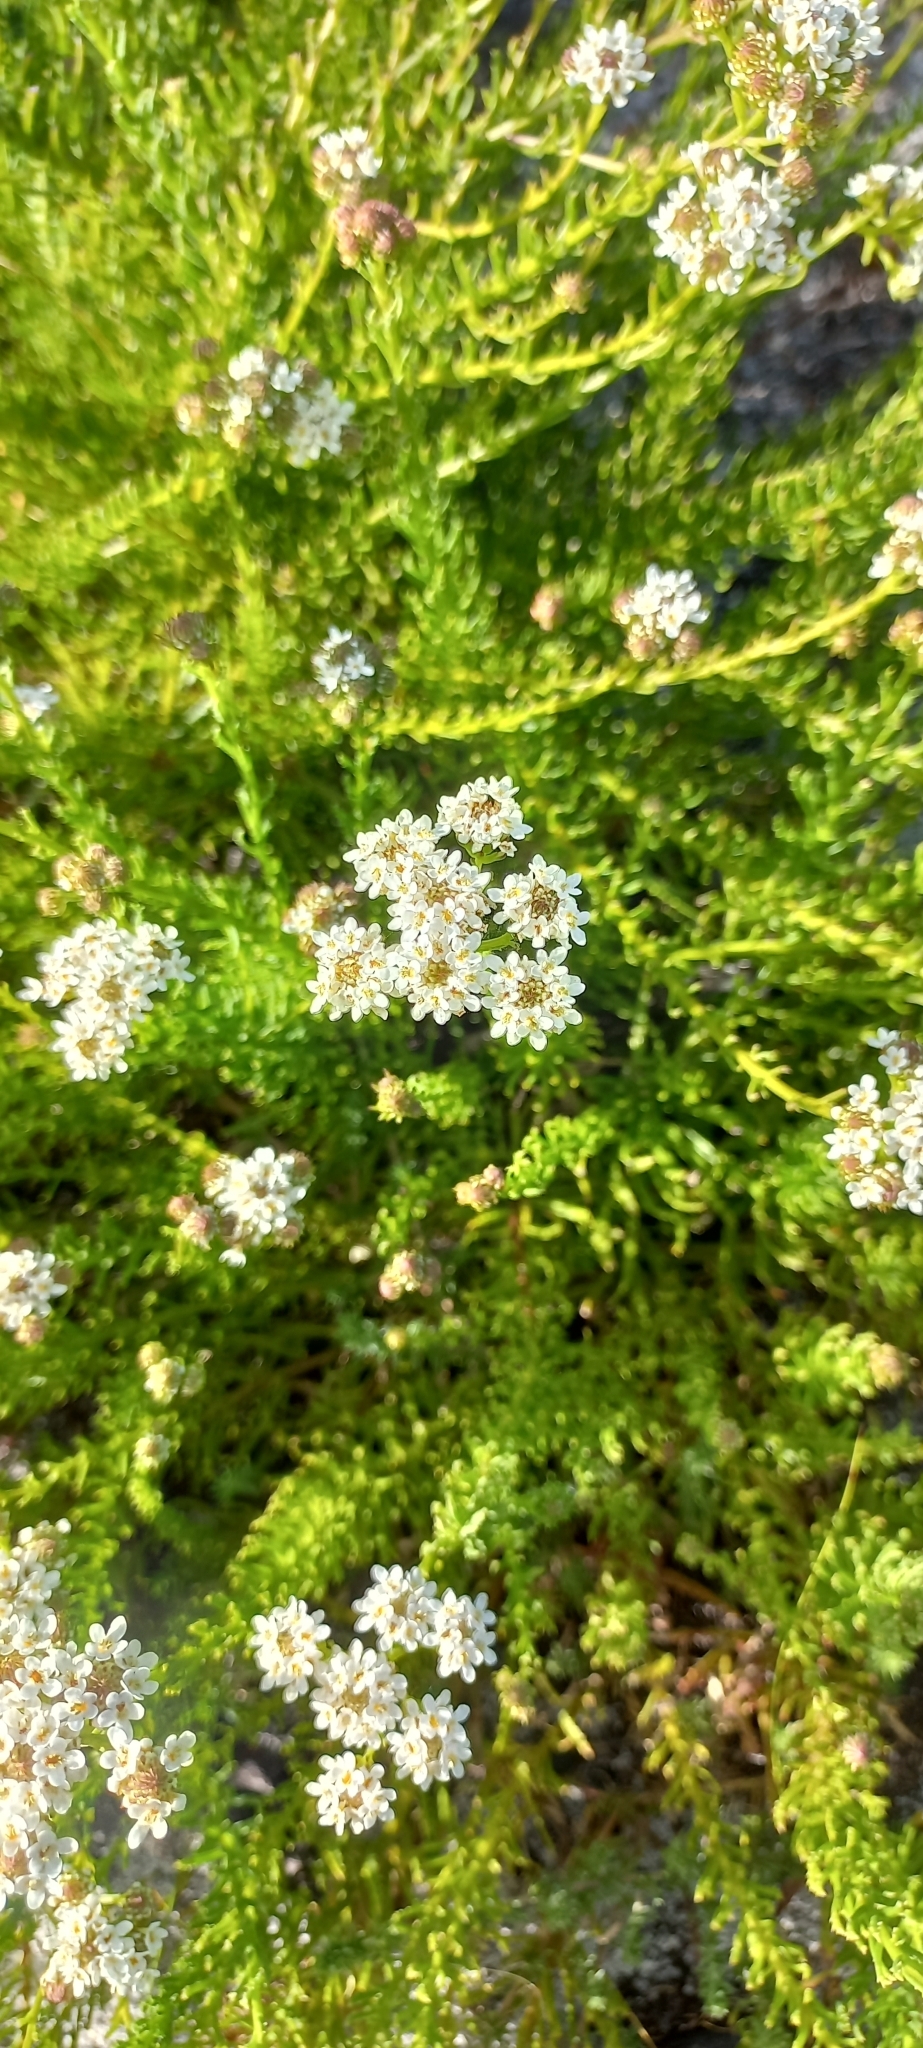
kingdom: Plantae
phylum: Tracheophyta
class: Magnoliopsida
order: Lamiales
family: Scrophulariaceae
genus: Pseudoselago
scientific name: Pseudoselago spuria
